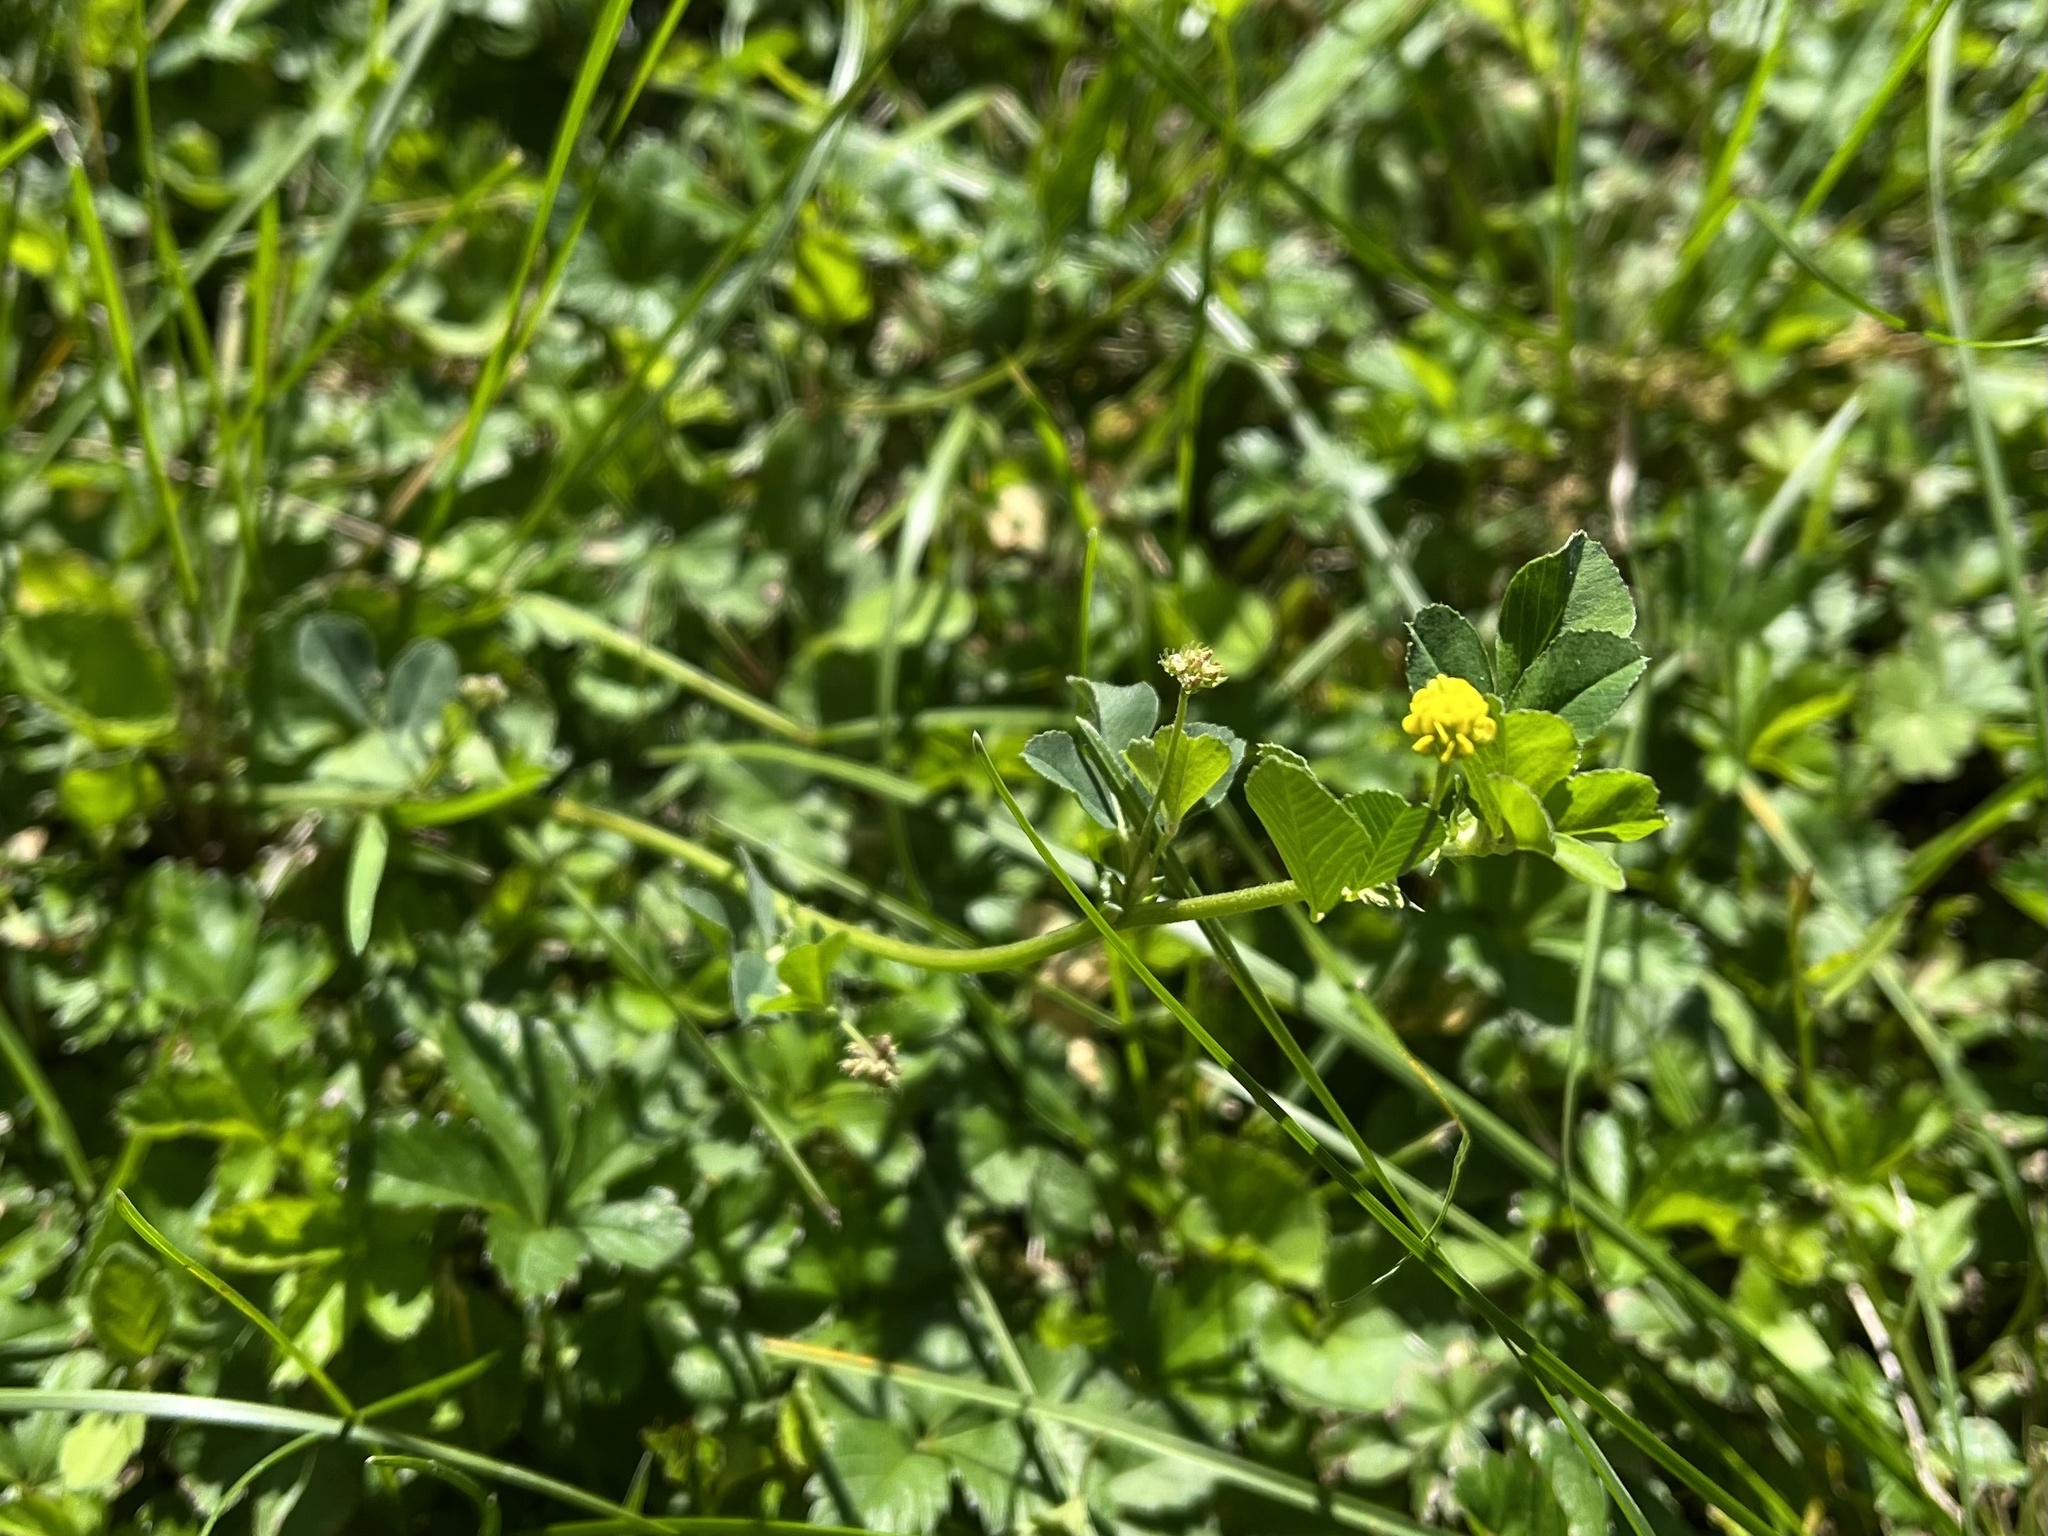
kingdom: Plantae
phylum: Tracheophyta
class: Magnoliopsida
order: Fabales
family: Fabaceae
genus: Medicago
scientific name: Medicago lupulina
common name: Black medick
